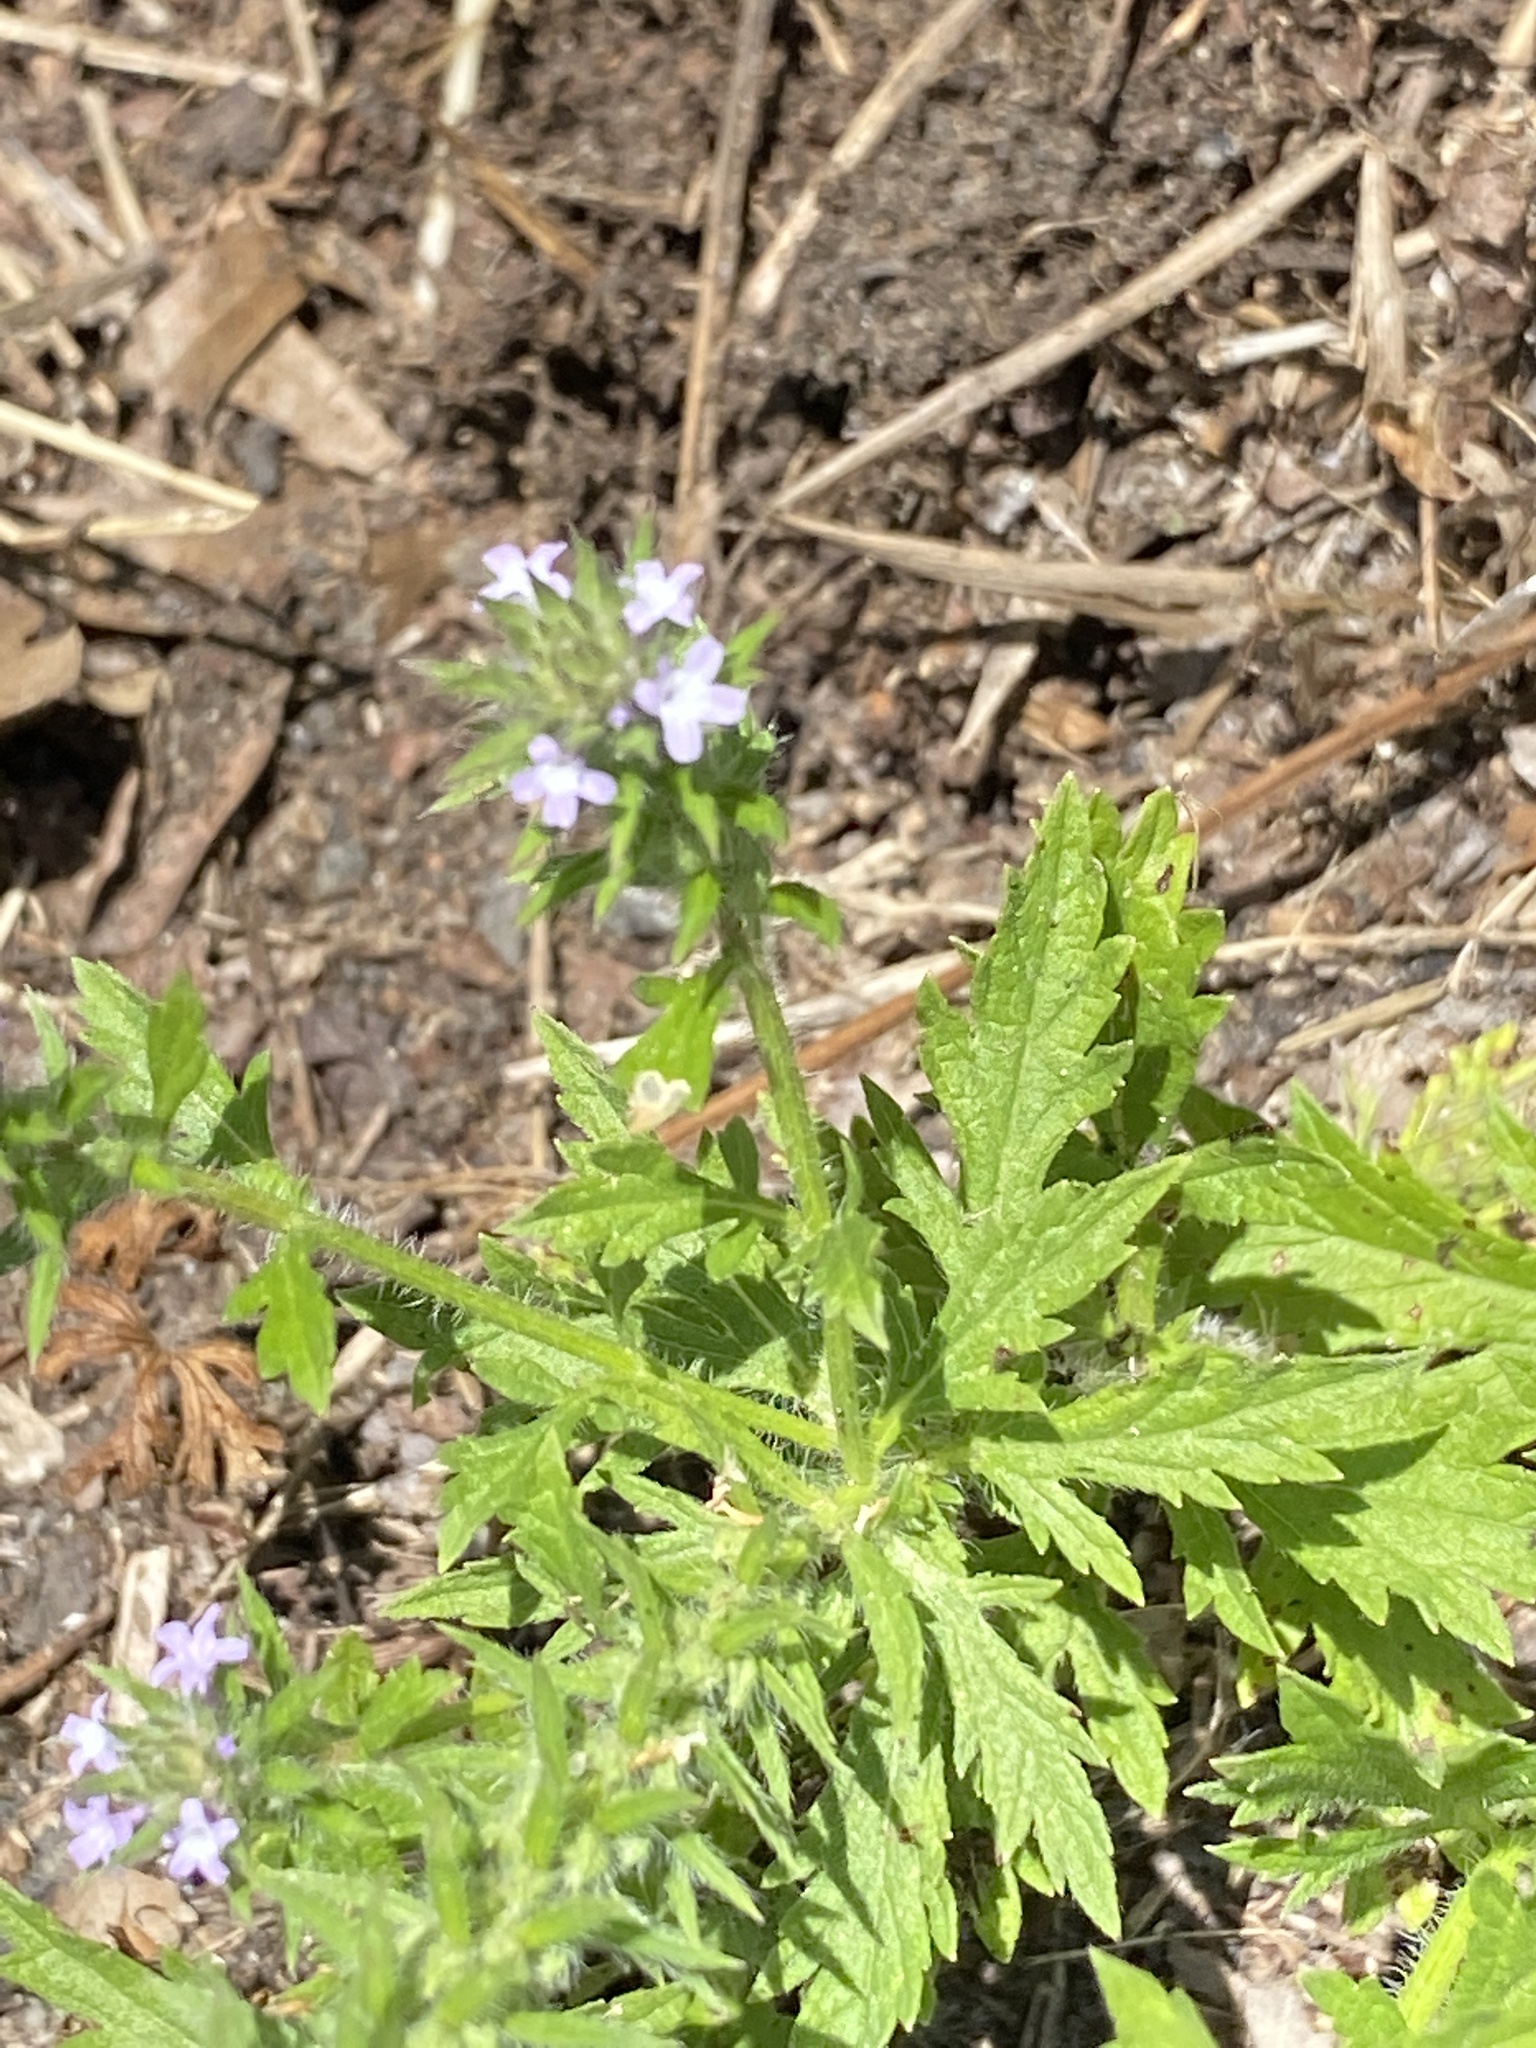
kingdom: Plantae
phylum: Tracheophyta
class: Magnoliopsida
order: Lamiales
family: Verbenaceae
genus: Verbena
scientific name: Verbena bracteata
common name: Bracted vervain
